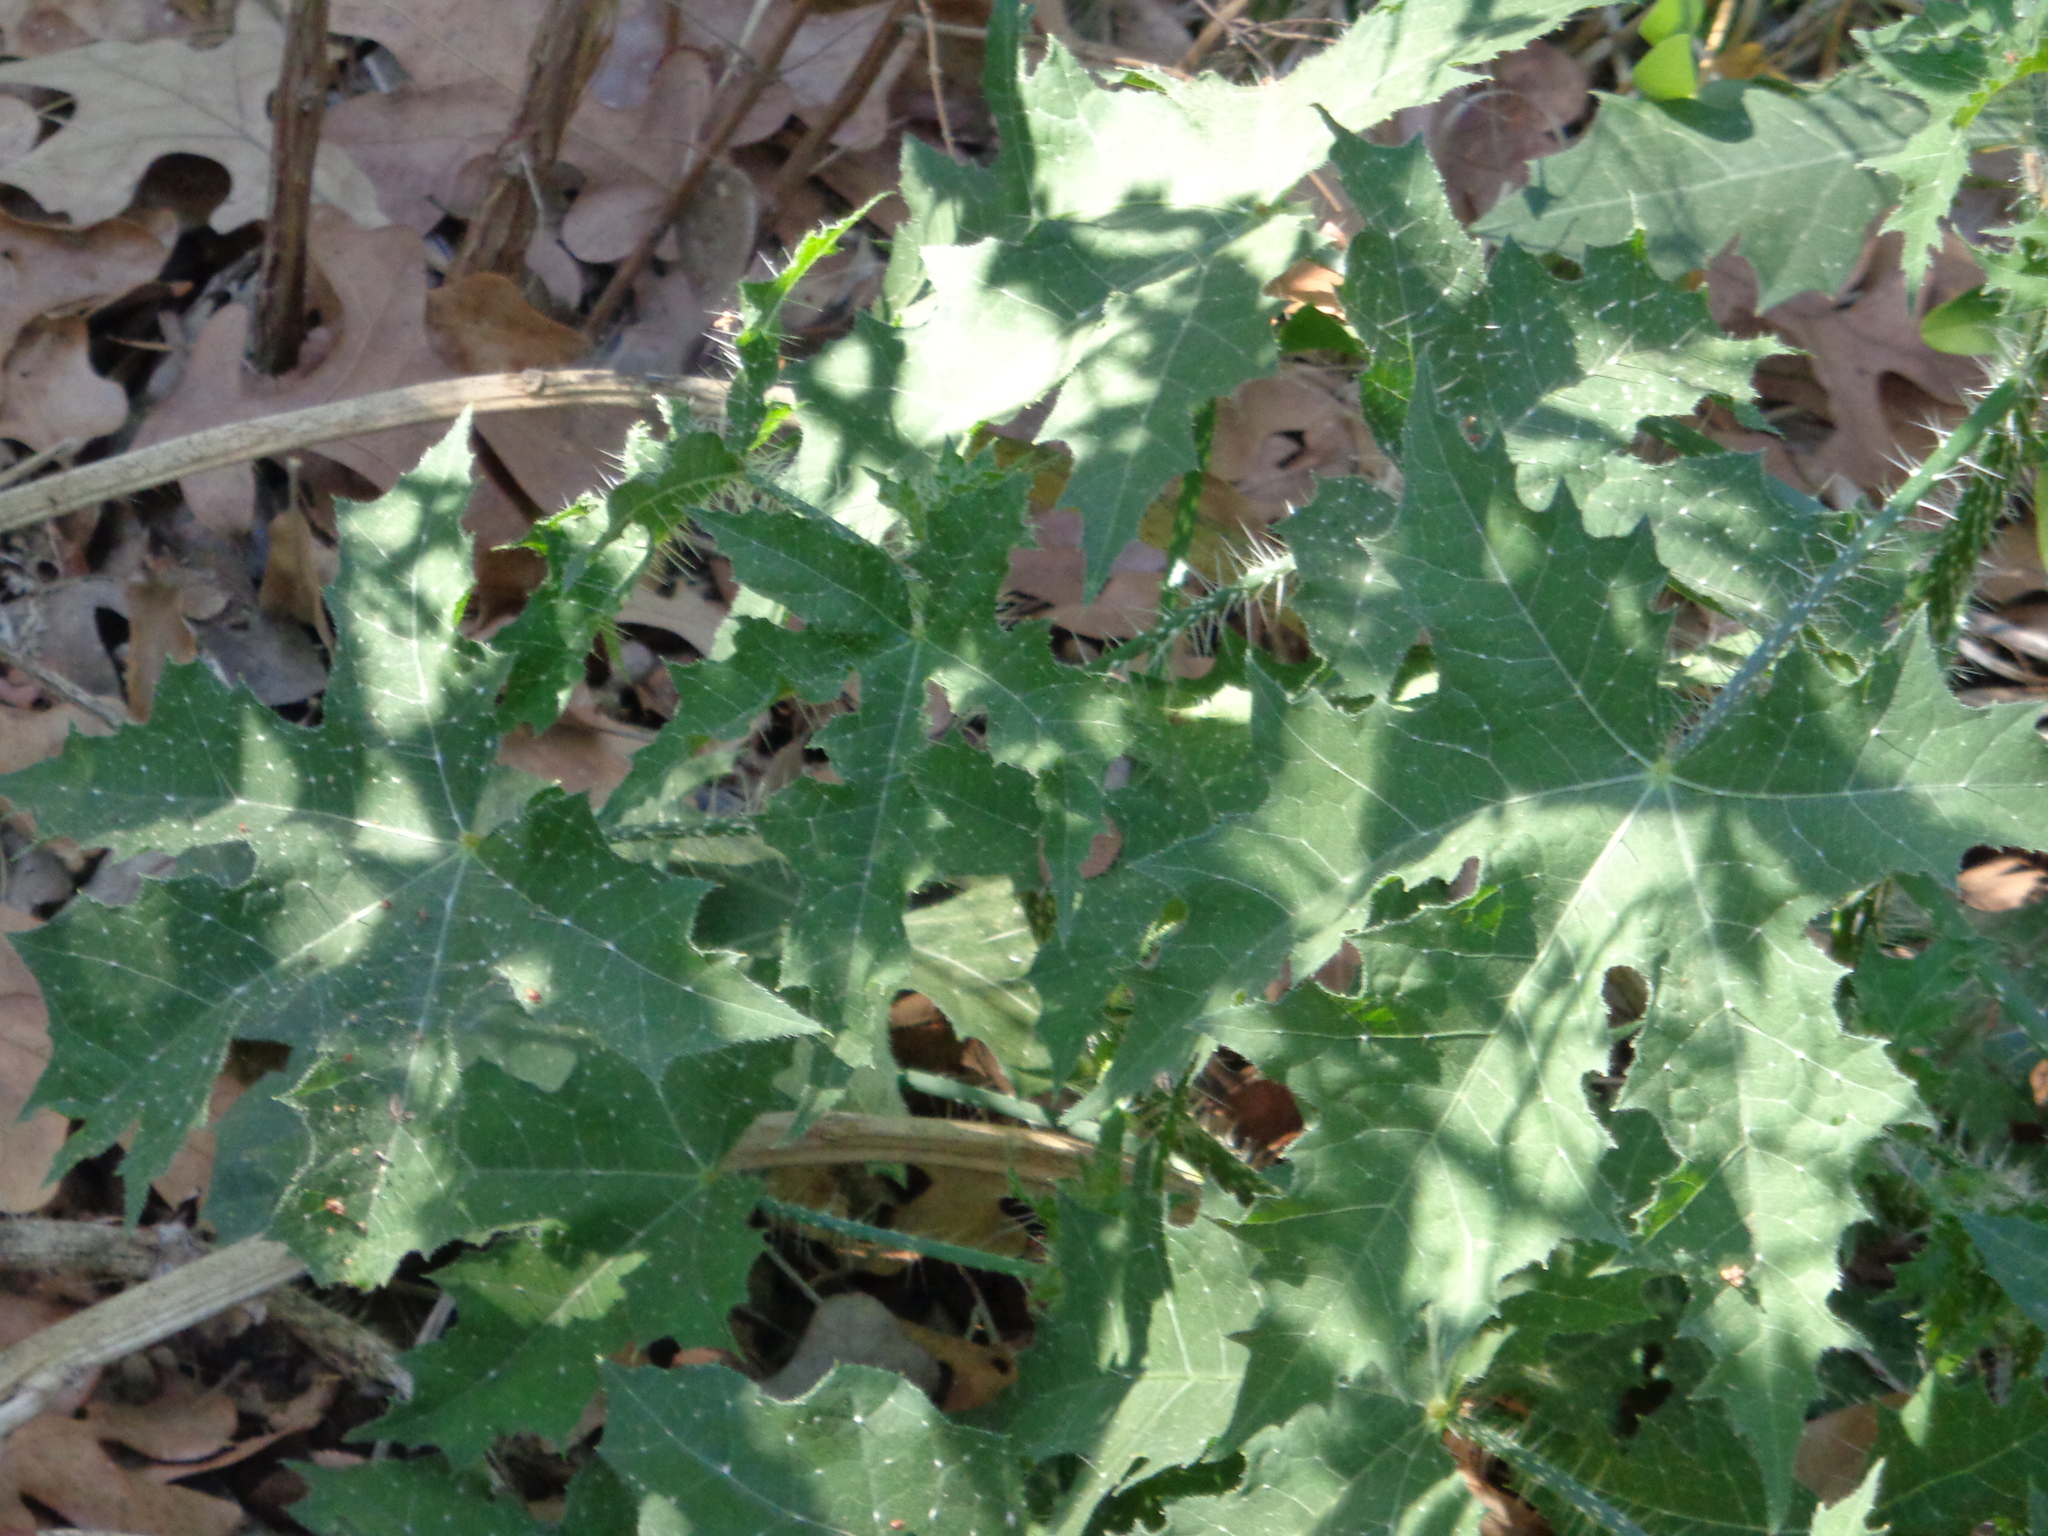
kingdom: Plantae
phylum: Tracheophyta
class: Magnoliopsida
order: Malpighiales
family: Euphorbiaceae
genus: Cnidoscolus
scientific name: Cnidoscolus texanus
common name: Texas bull-nettle
